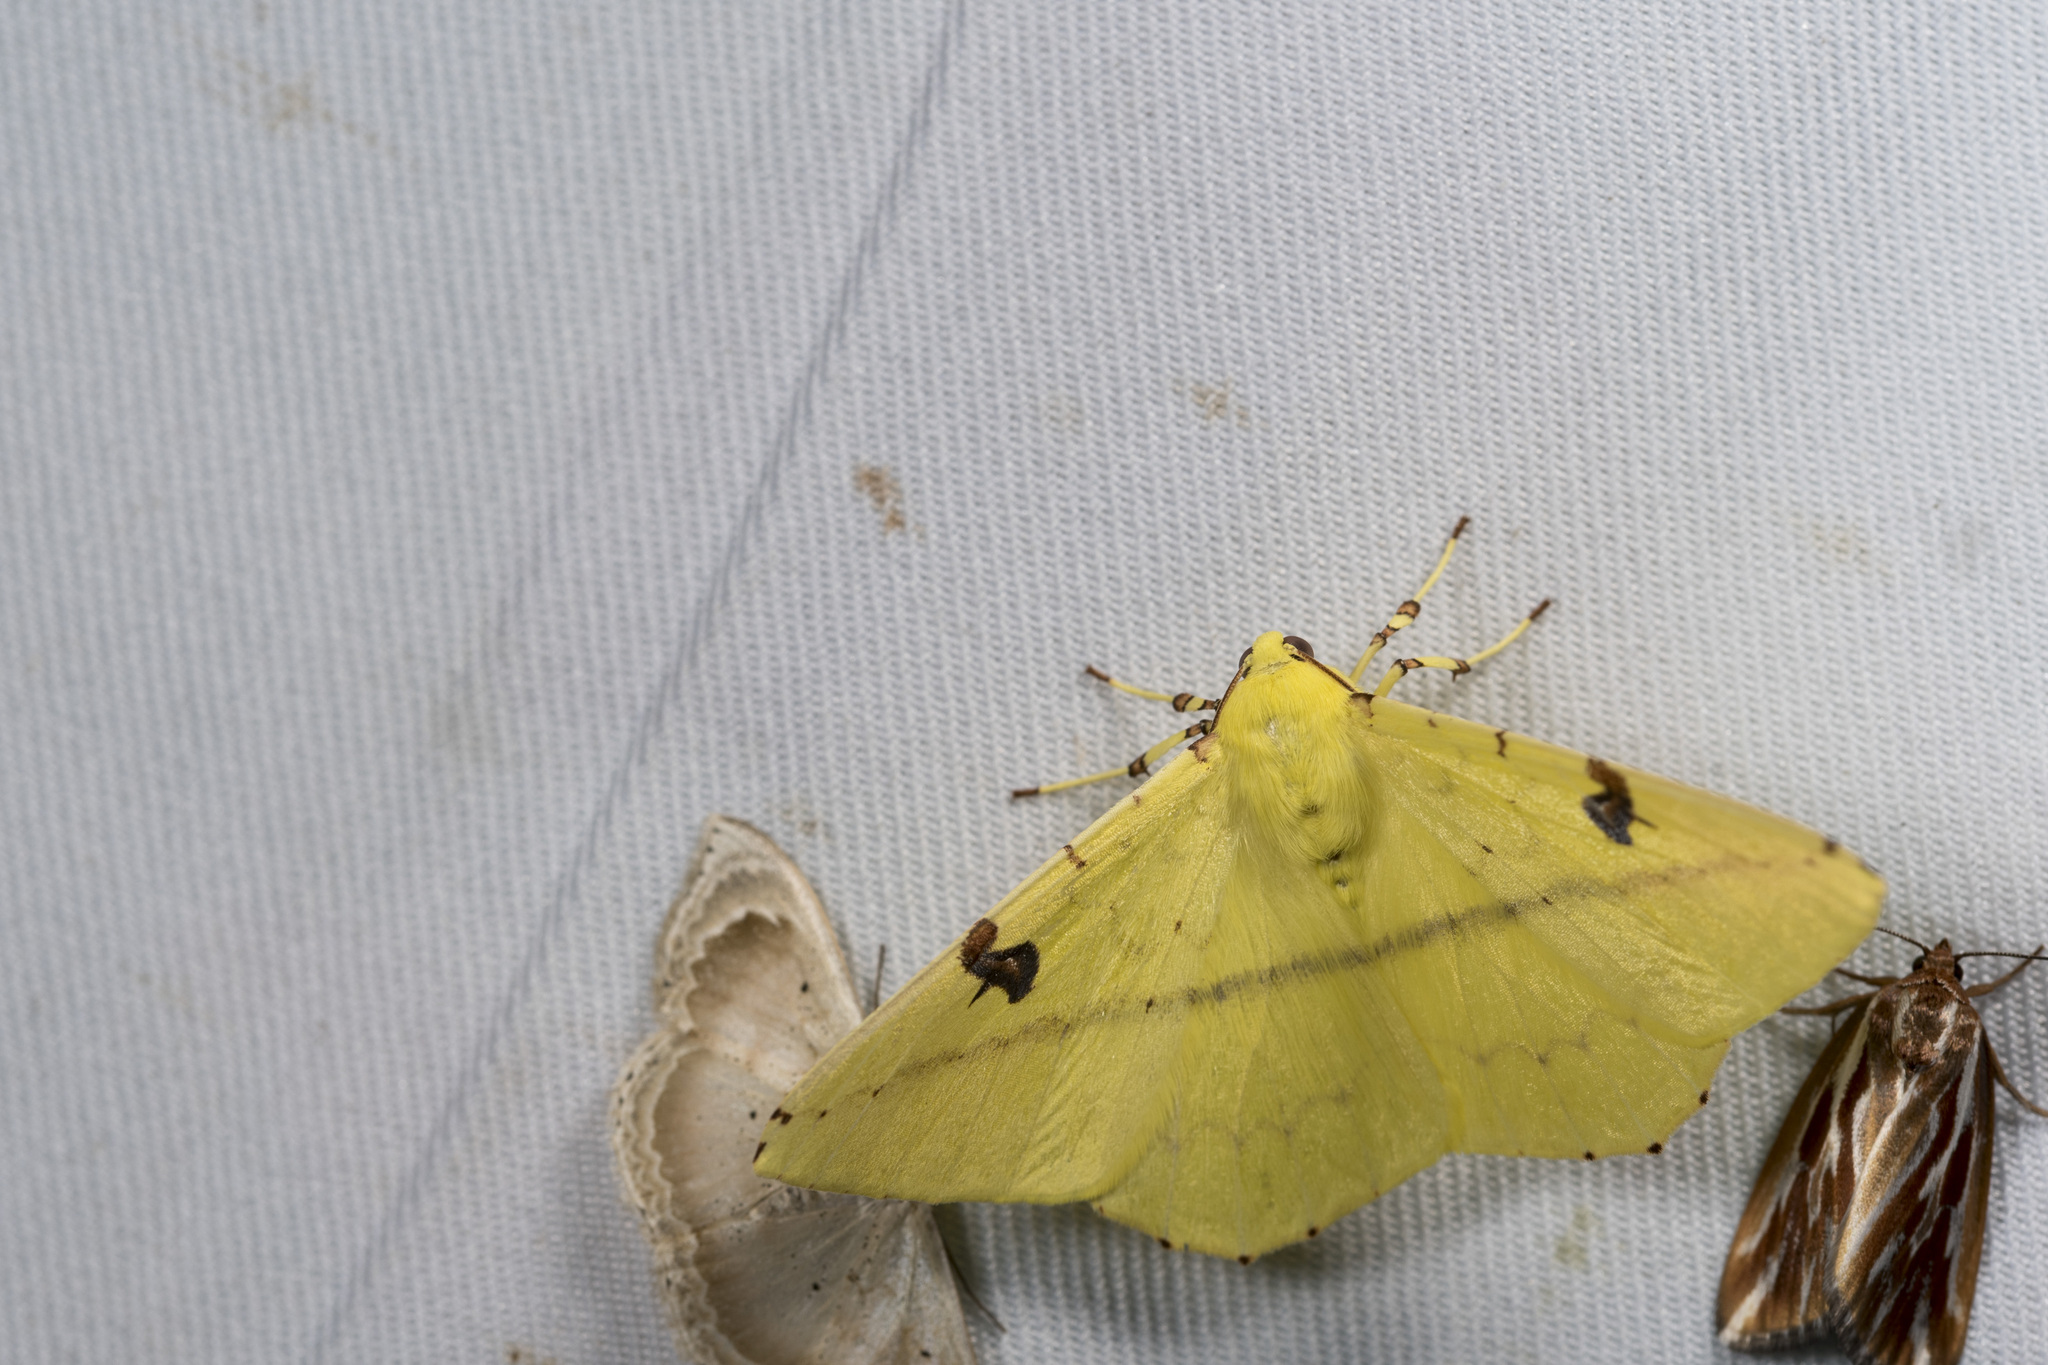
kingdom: Animalia
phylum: Arthropoda
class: Insecta
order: Lepidoptera
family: Geometridae
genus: Opisthograptis
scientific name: Opisthograptis moelleri
